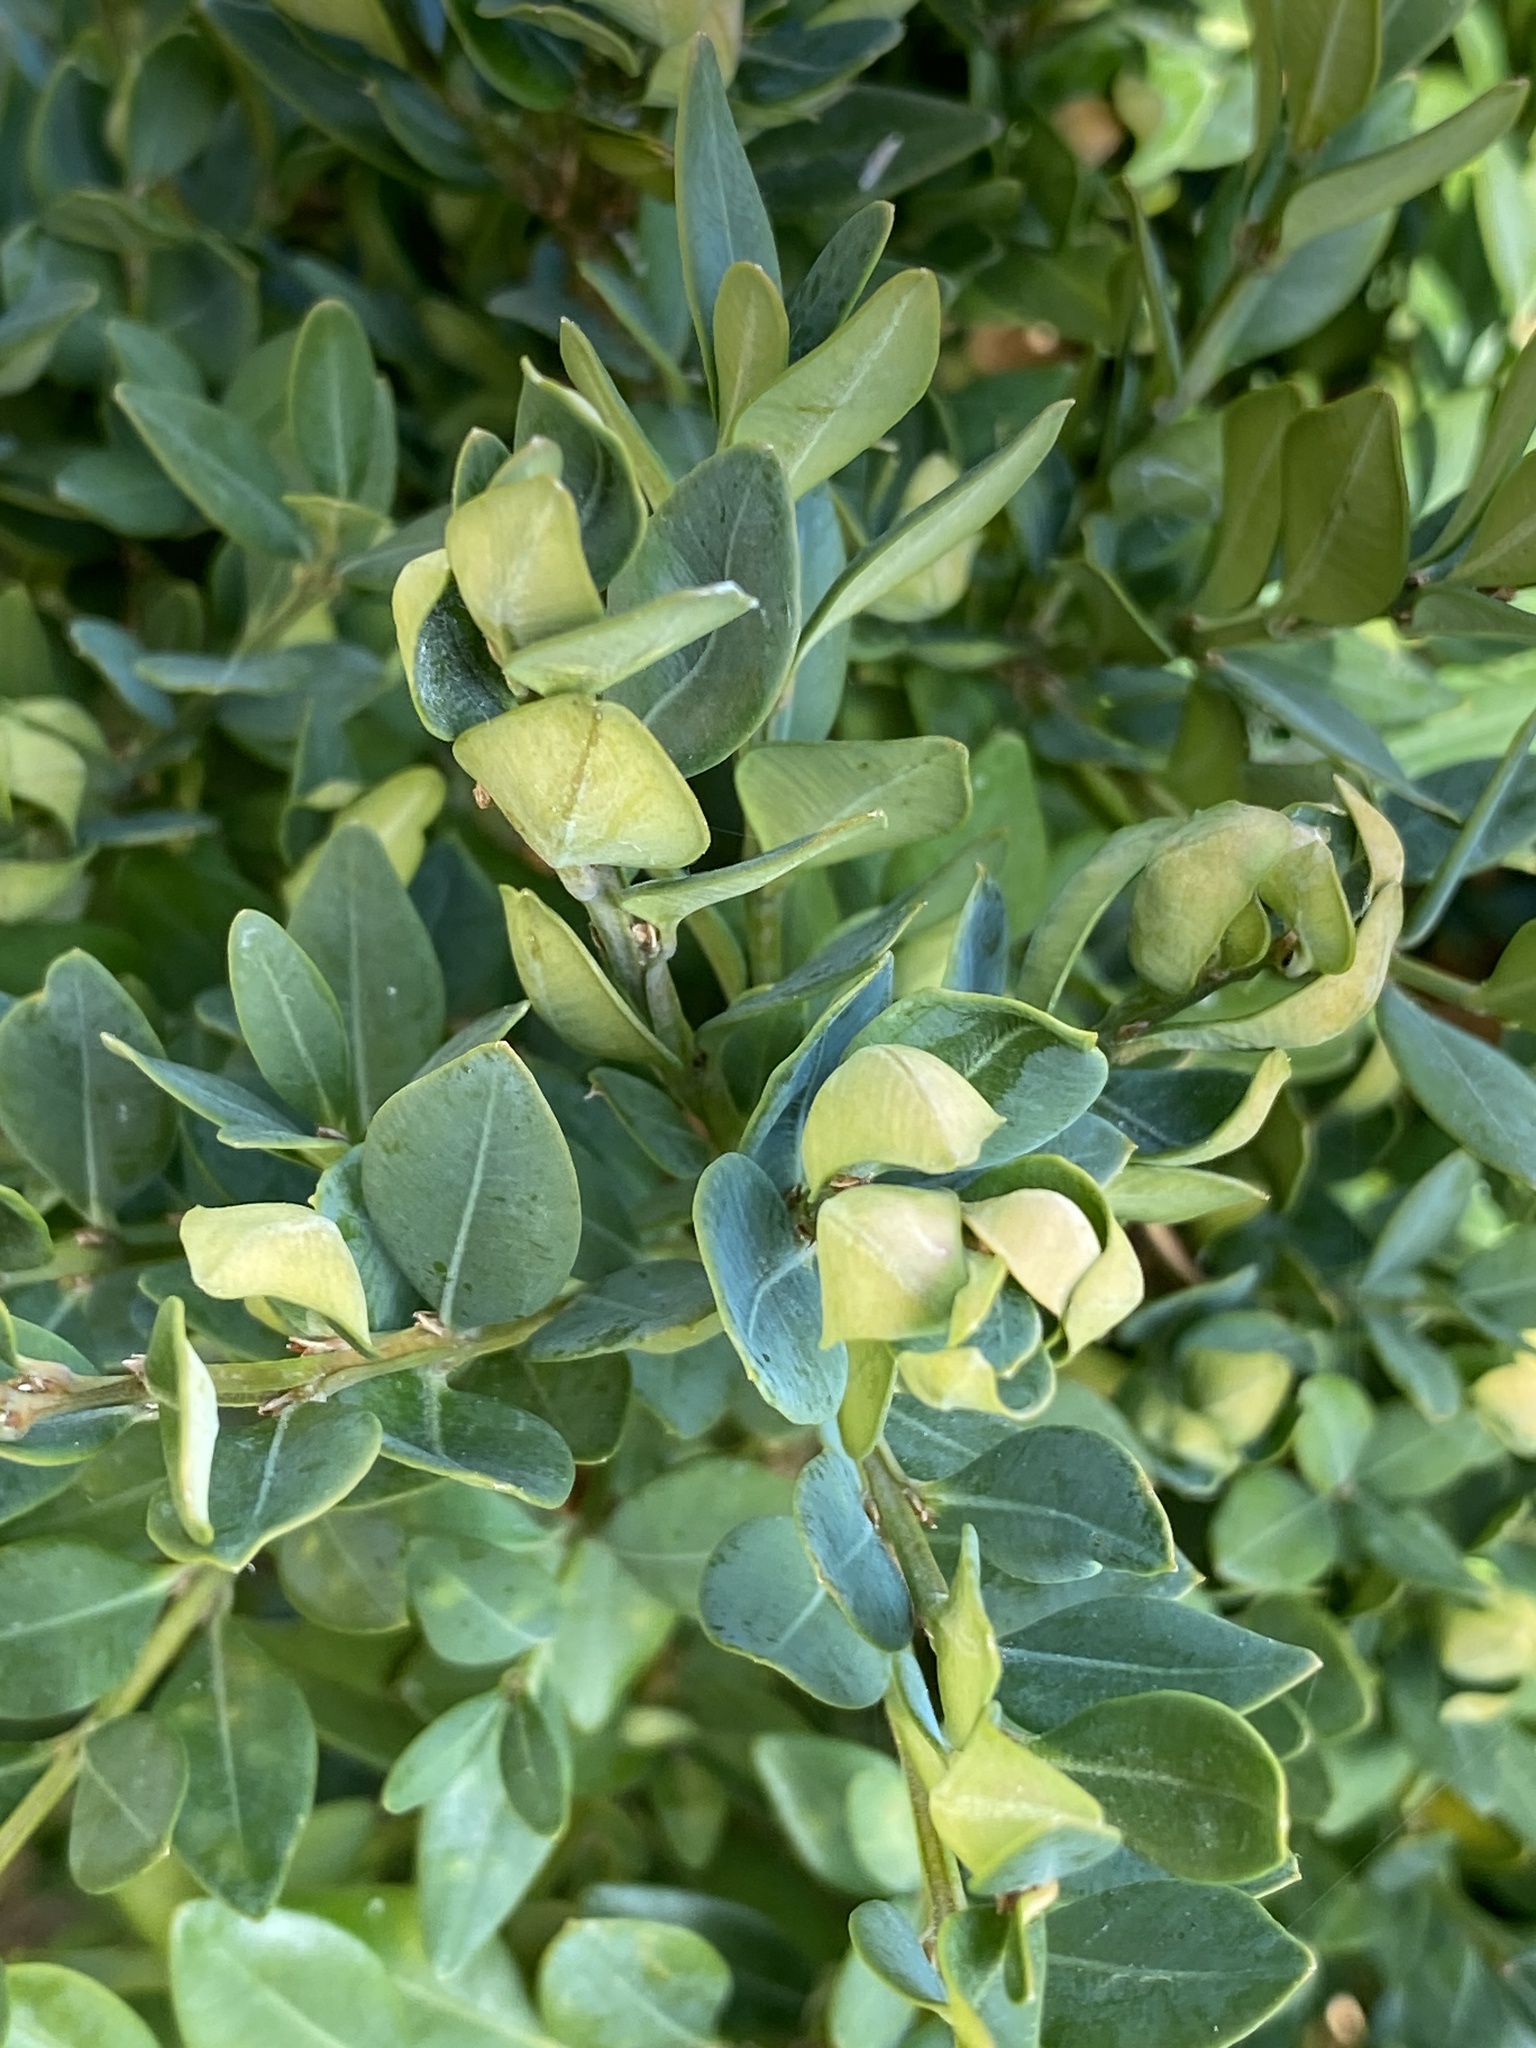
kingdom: Animalia
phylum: Arthropoda
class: Insecta
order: Hemiptera
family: Psyllidae
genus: Psylla
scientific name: Psylla buxi
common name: Boxwood psyllid
